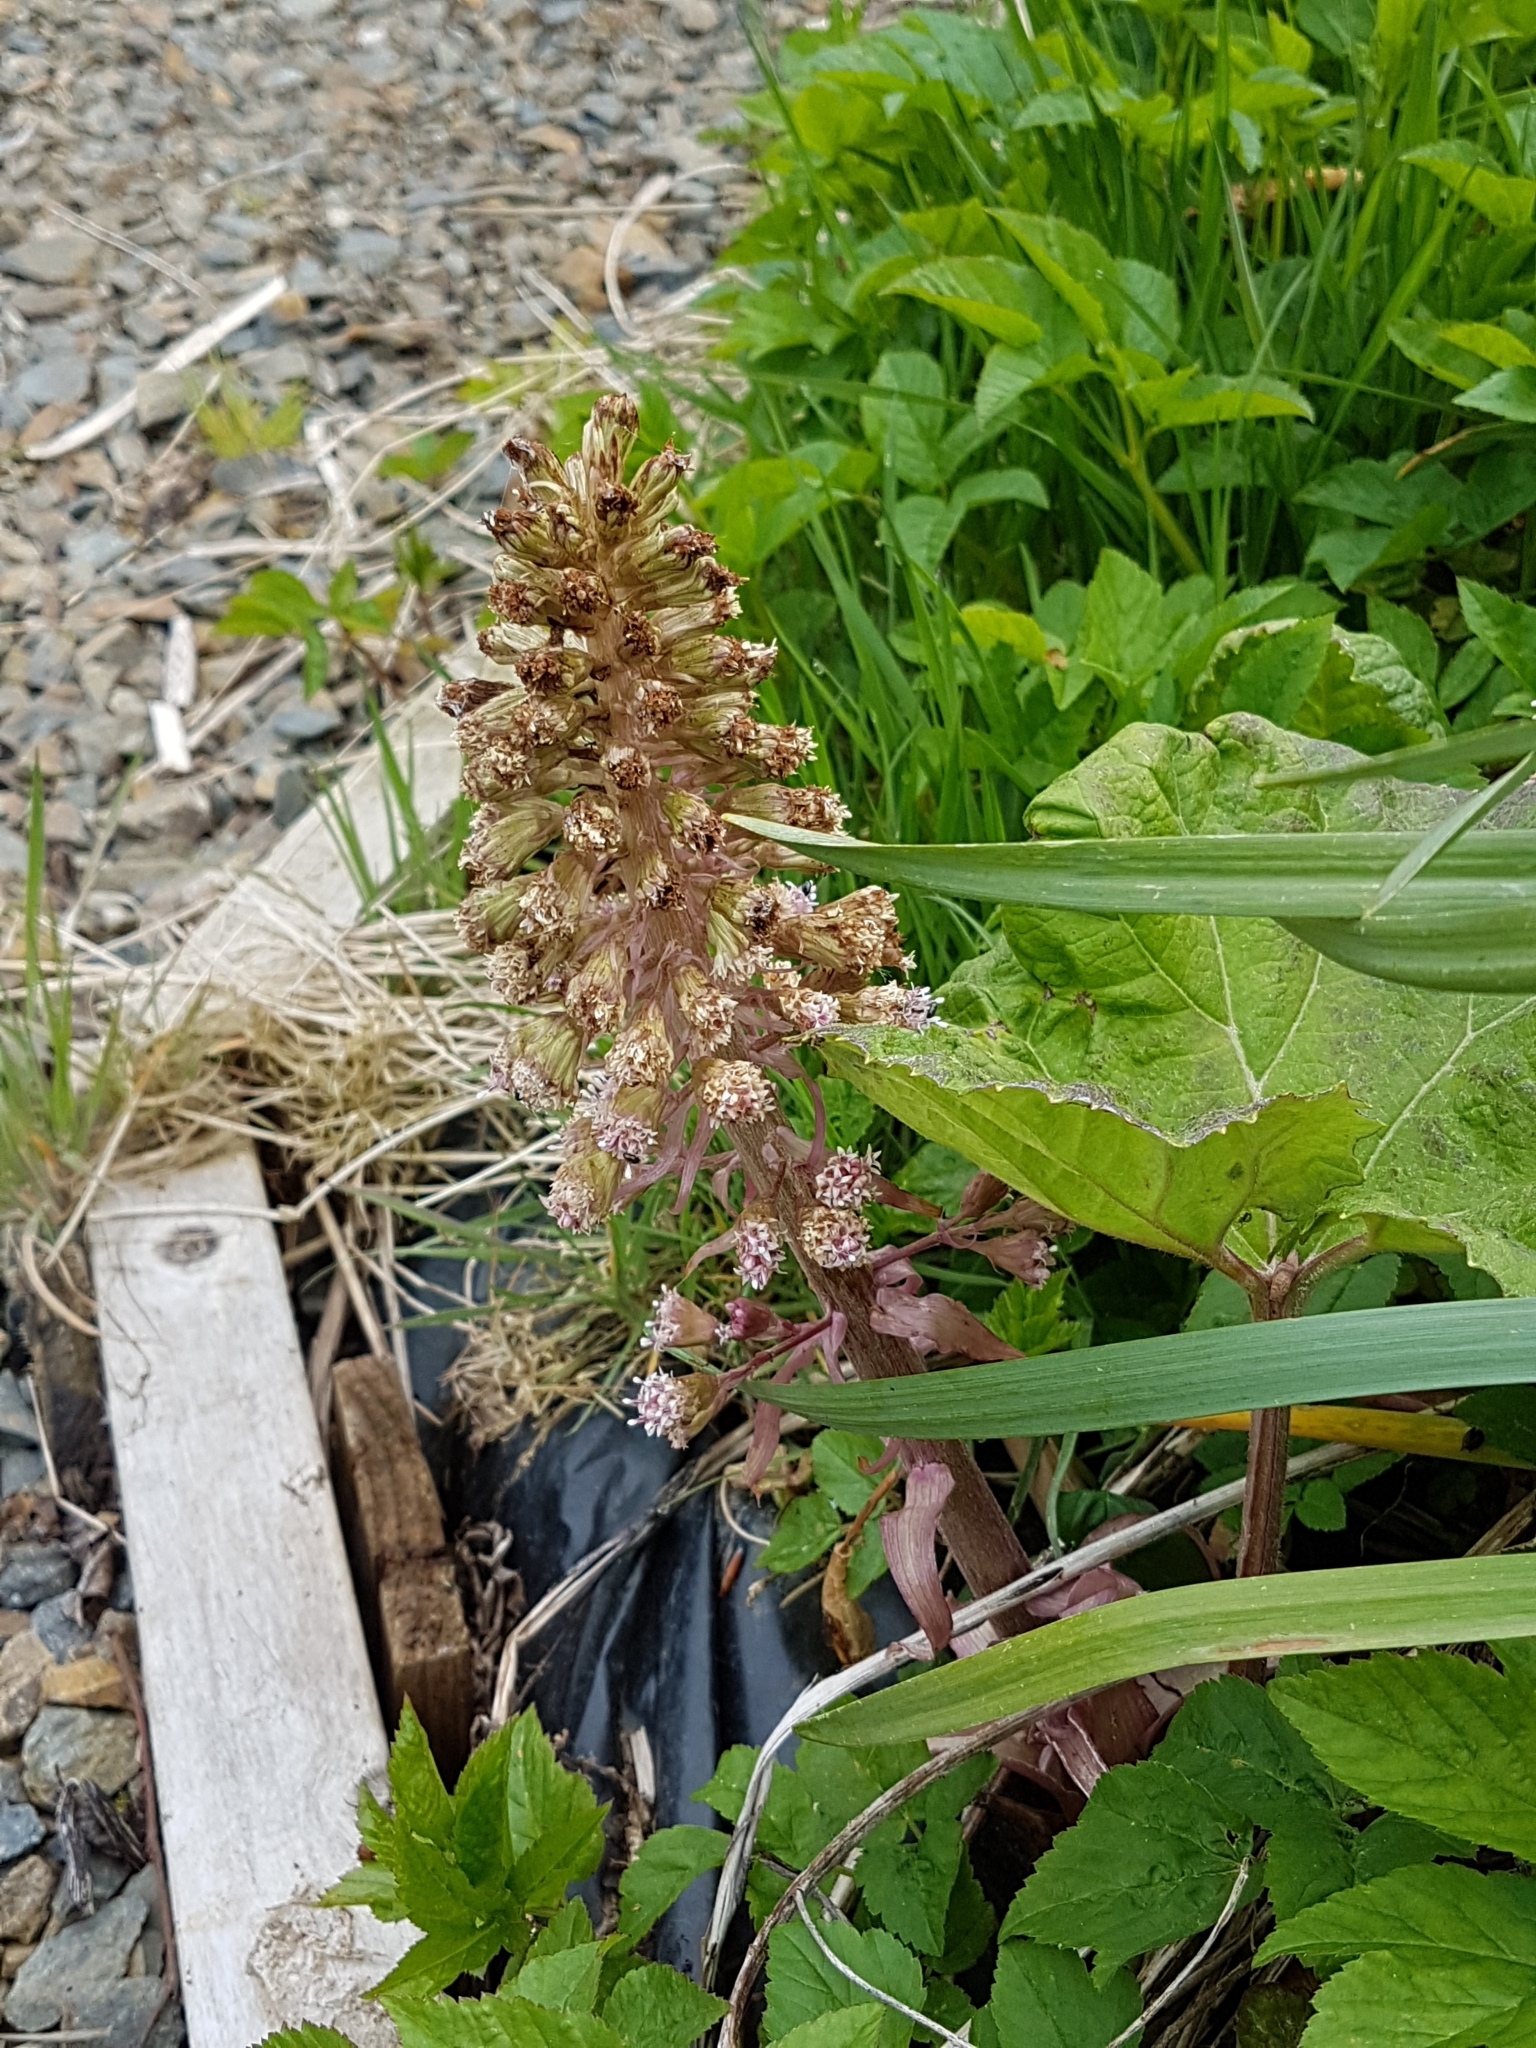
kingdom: Plantae
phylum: Tracheophyta
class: Magnoliopsida
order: Asterales
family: Asteraceae
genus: Petasites
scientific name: Petasites hybridus
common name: Butterbur
